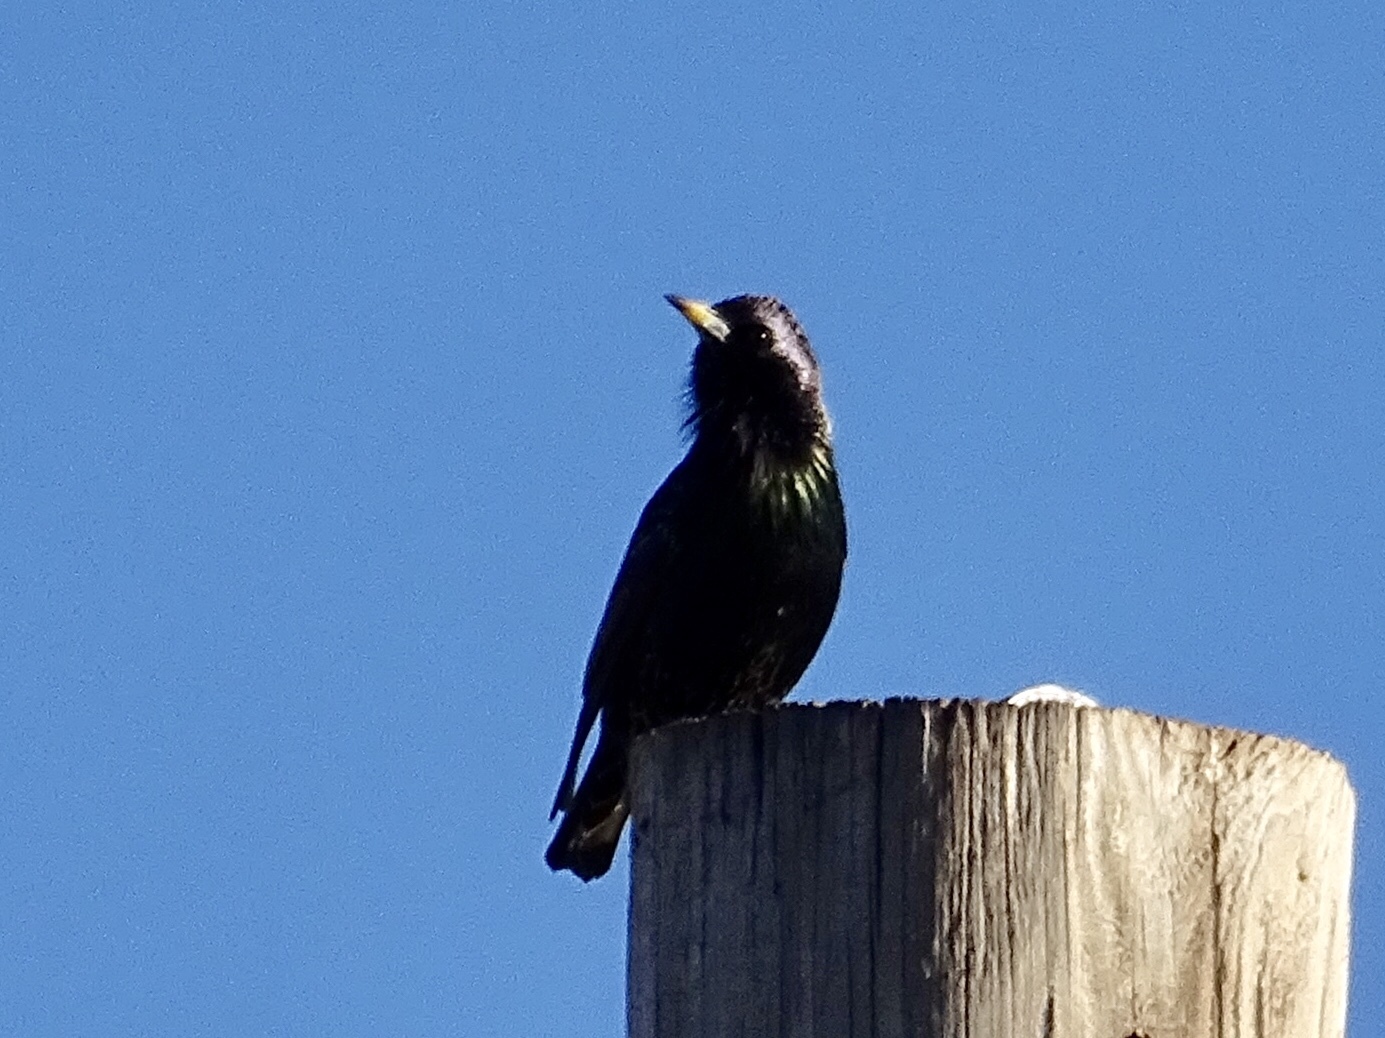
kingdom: Animalia
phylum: Chordata
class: Aves
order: Passeriformes
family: Sturnidae
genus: Sturnus
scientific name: Sturnus vulgaris
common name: Common starling
